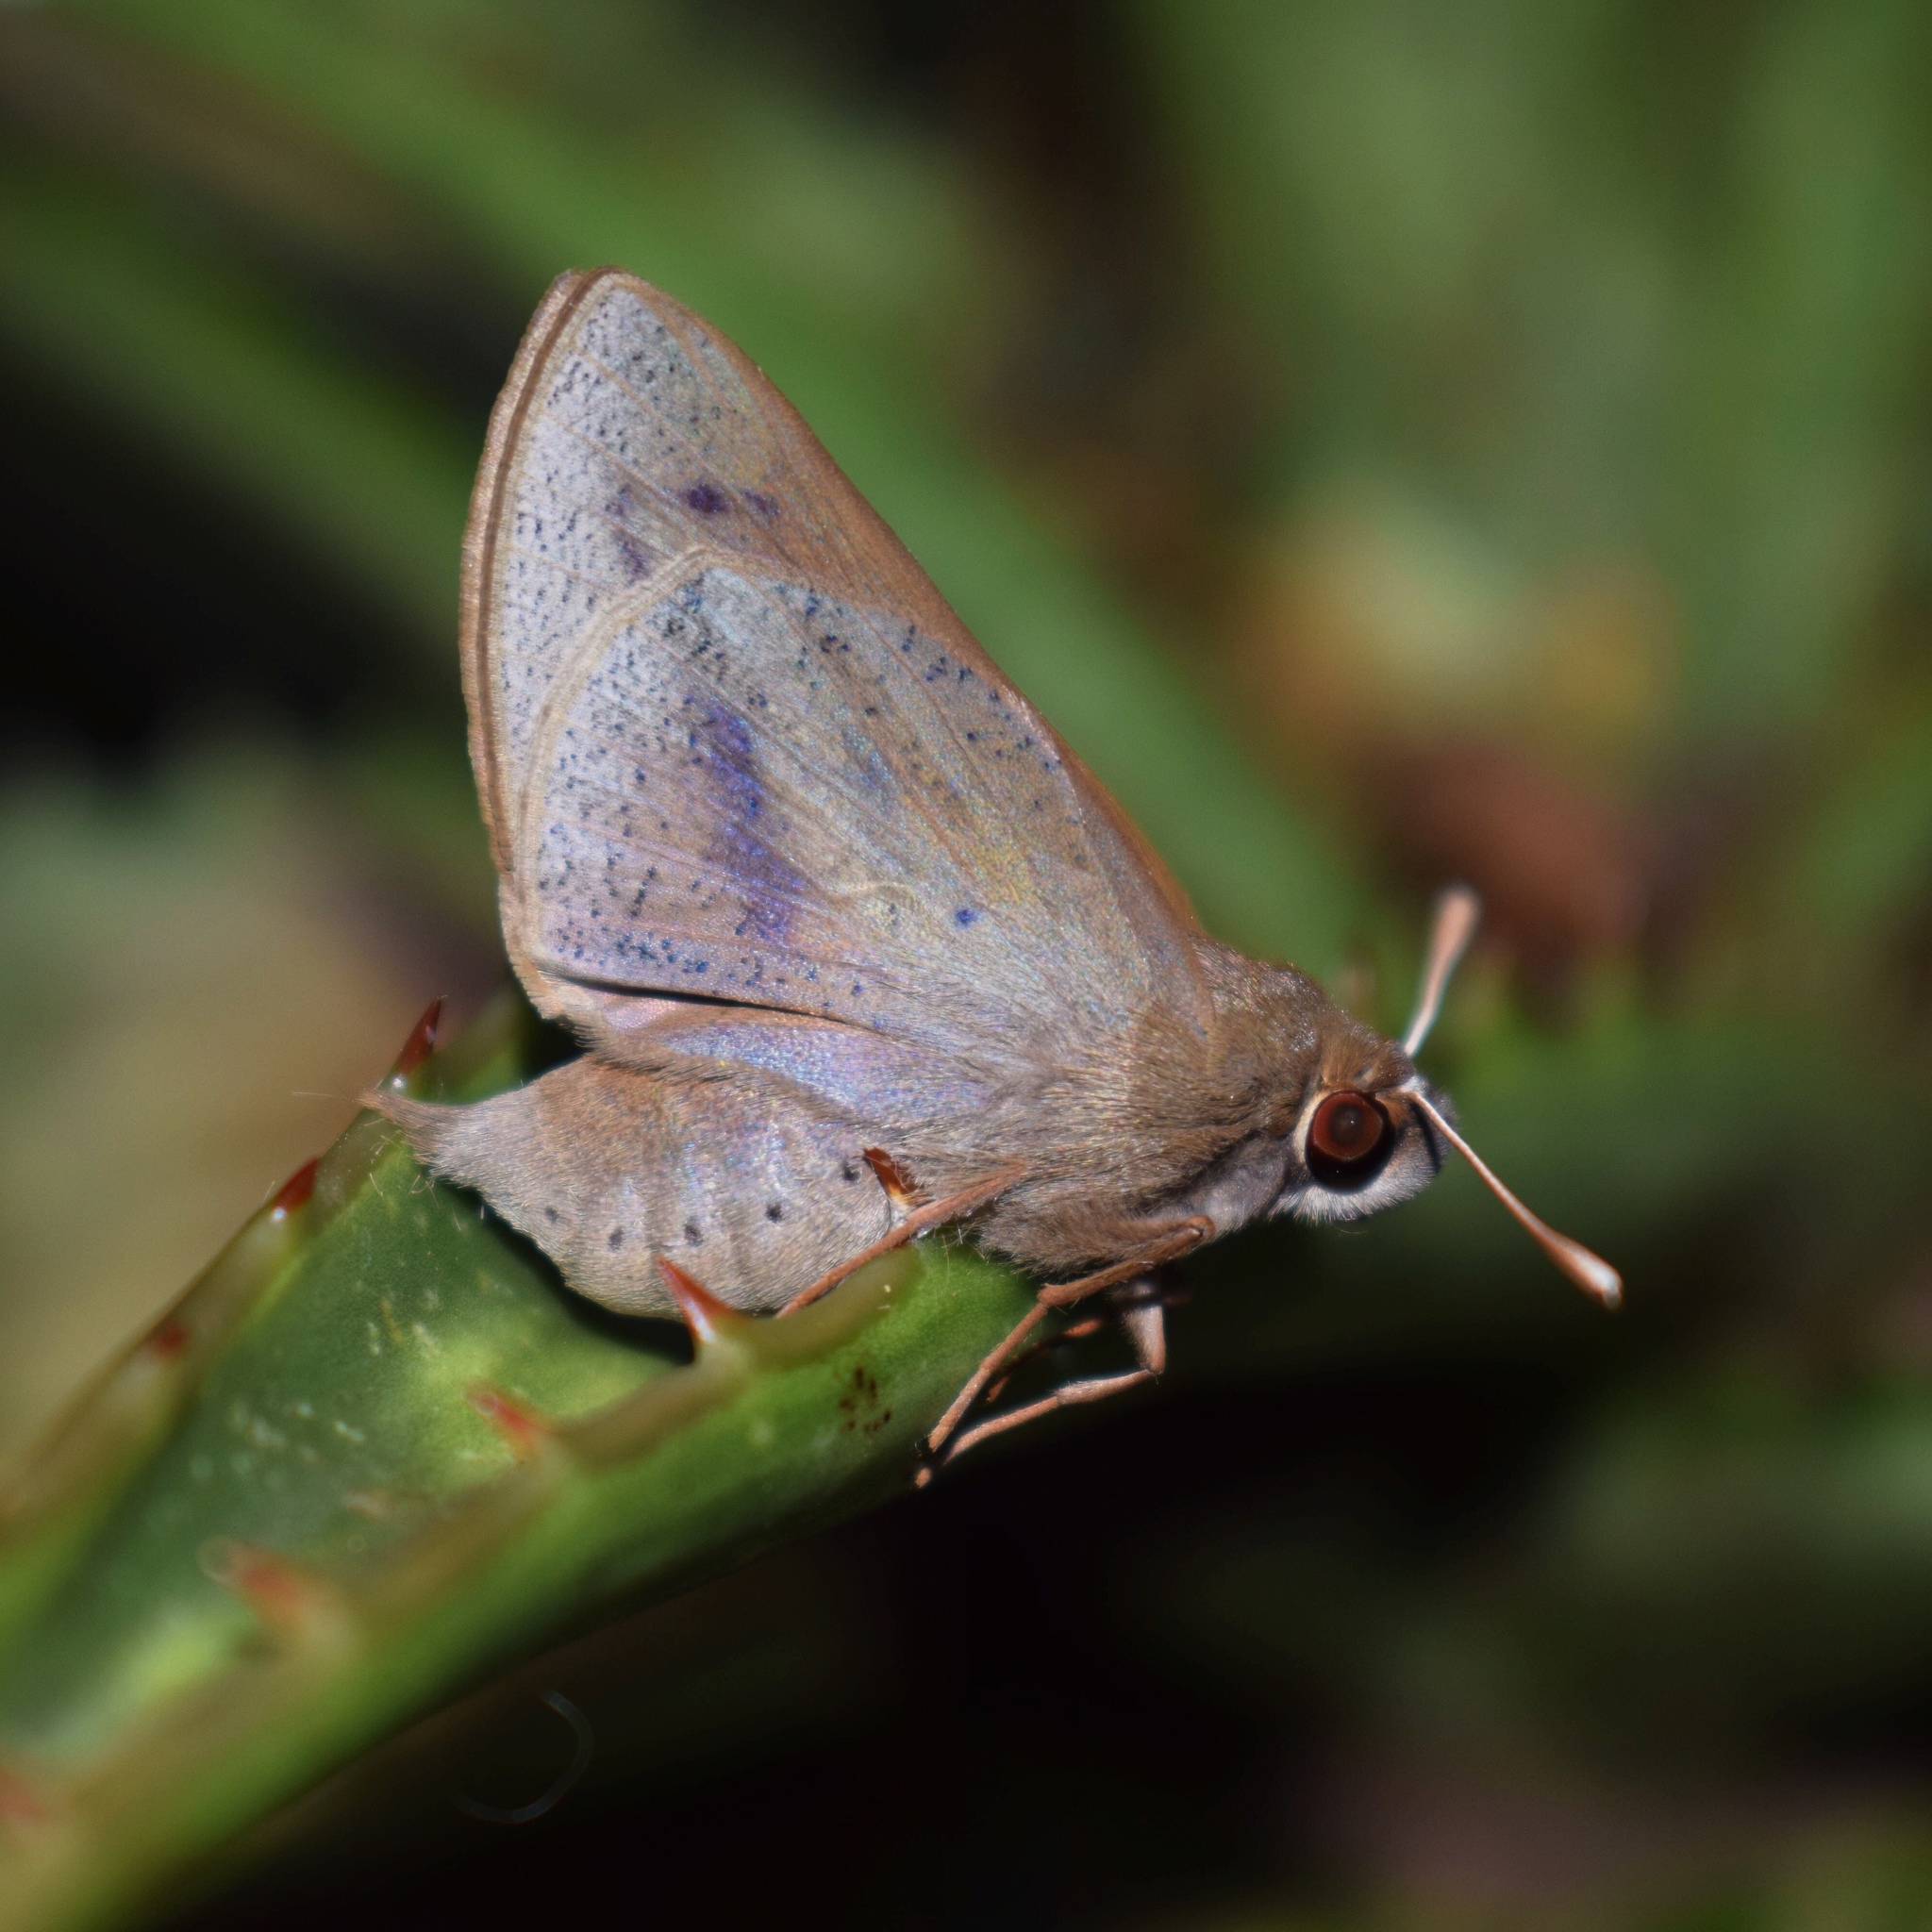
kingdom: Animalia
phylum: Arthropoda
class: Insecta
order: Lepidoptera
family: Hesperiidae
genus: Moltena
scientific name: Moltena fiara
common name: Banana-tree night-fighter
